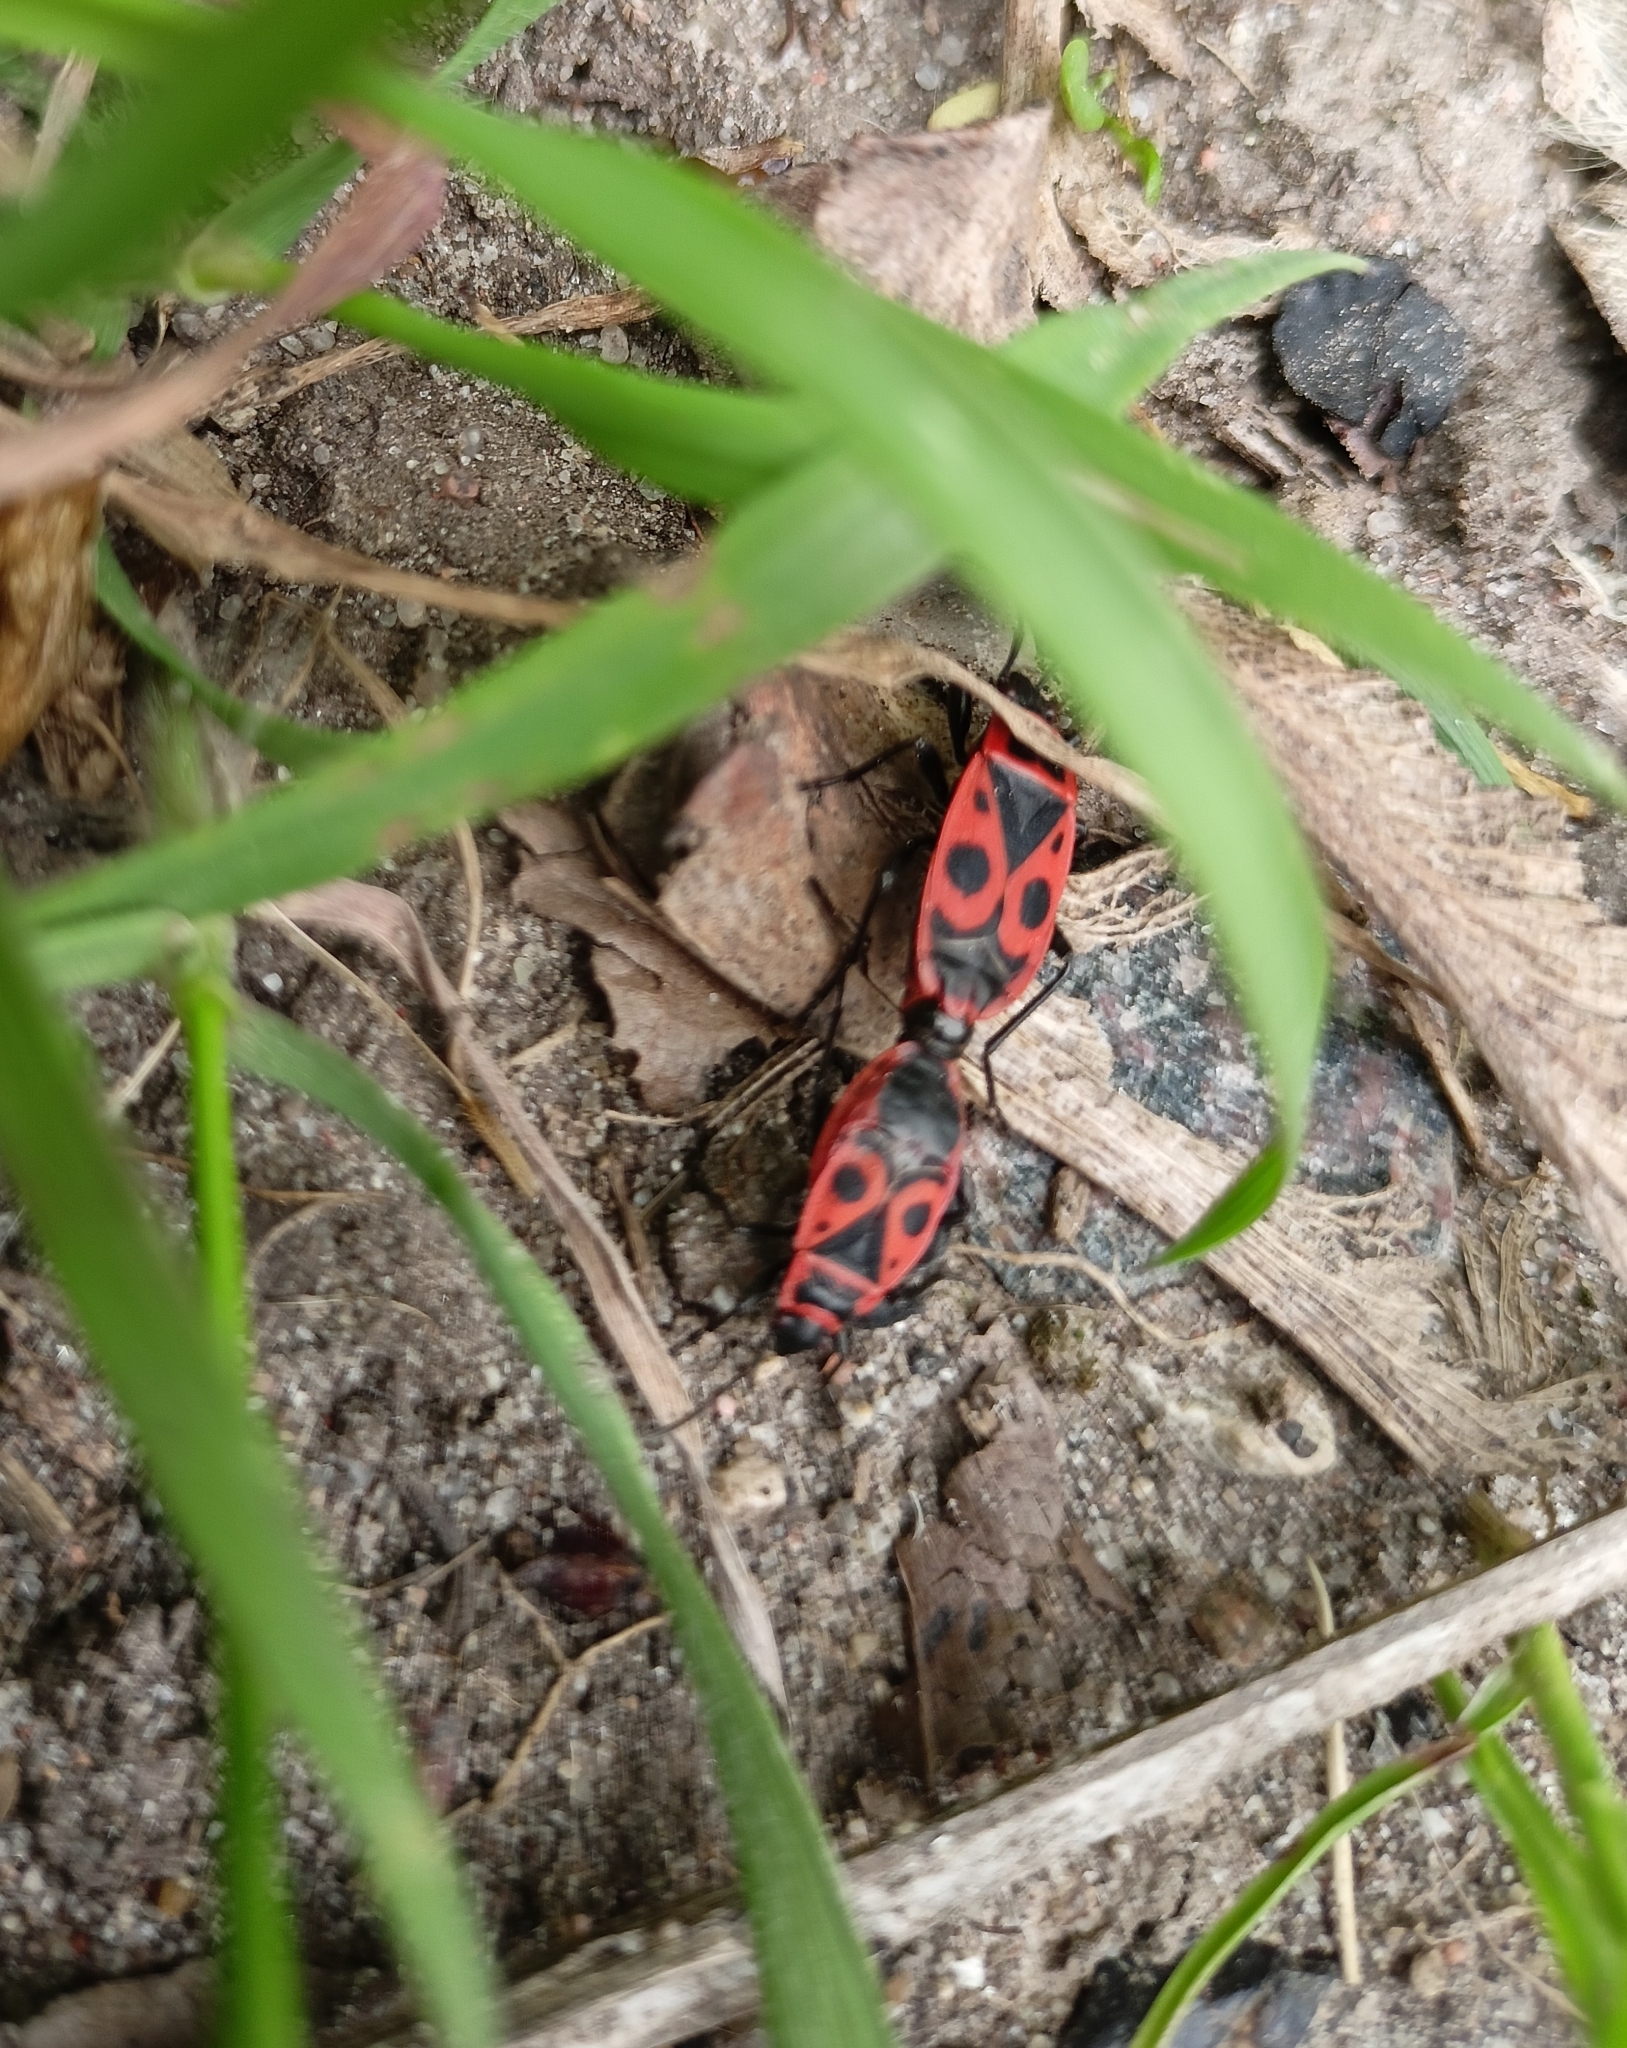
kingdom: Animalia
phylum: Arthropoda
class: Insecta
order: Hemiptera
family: Pyrrhocoridae
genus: Pyrrhocoris
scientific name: Pyrrhocoris apterus
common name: Firebug
